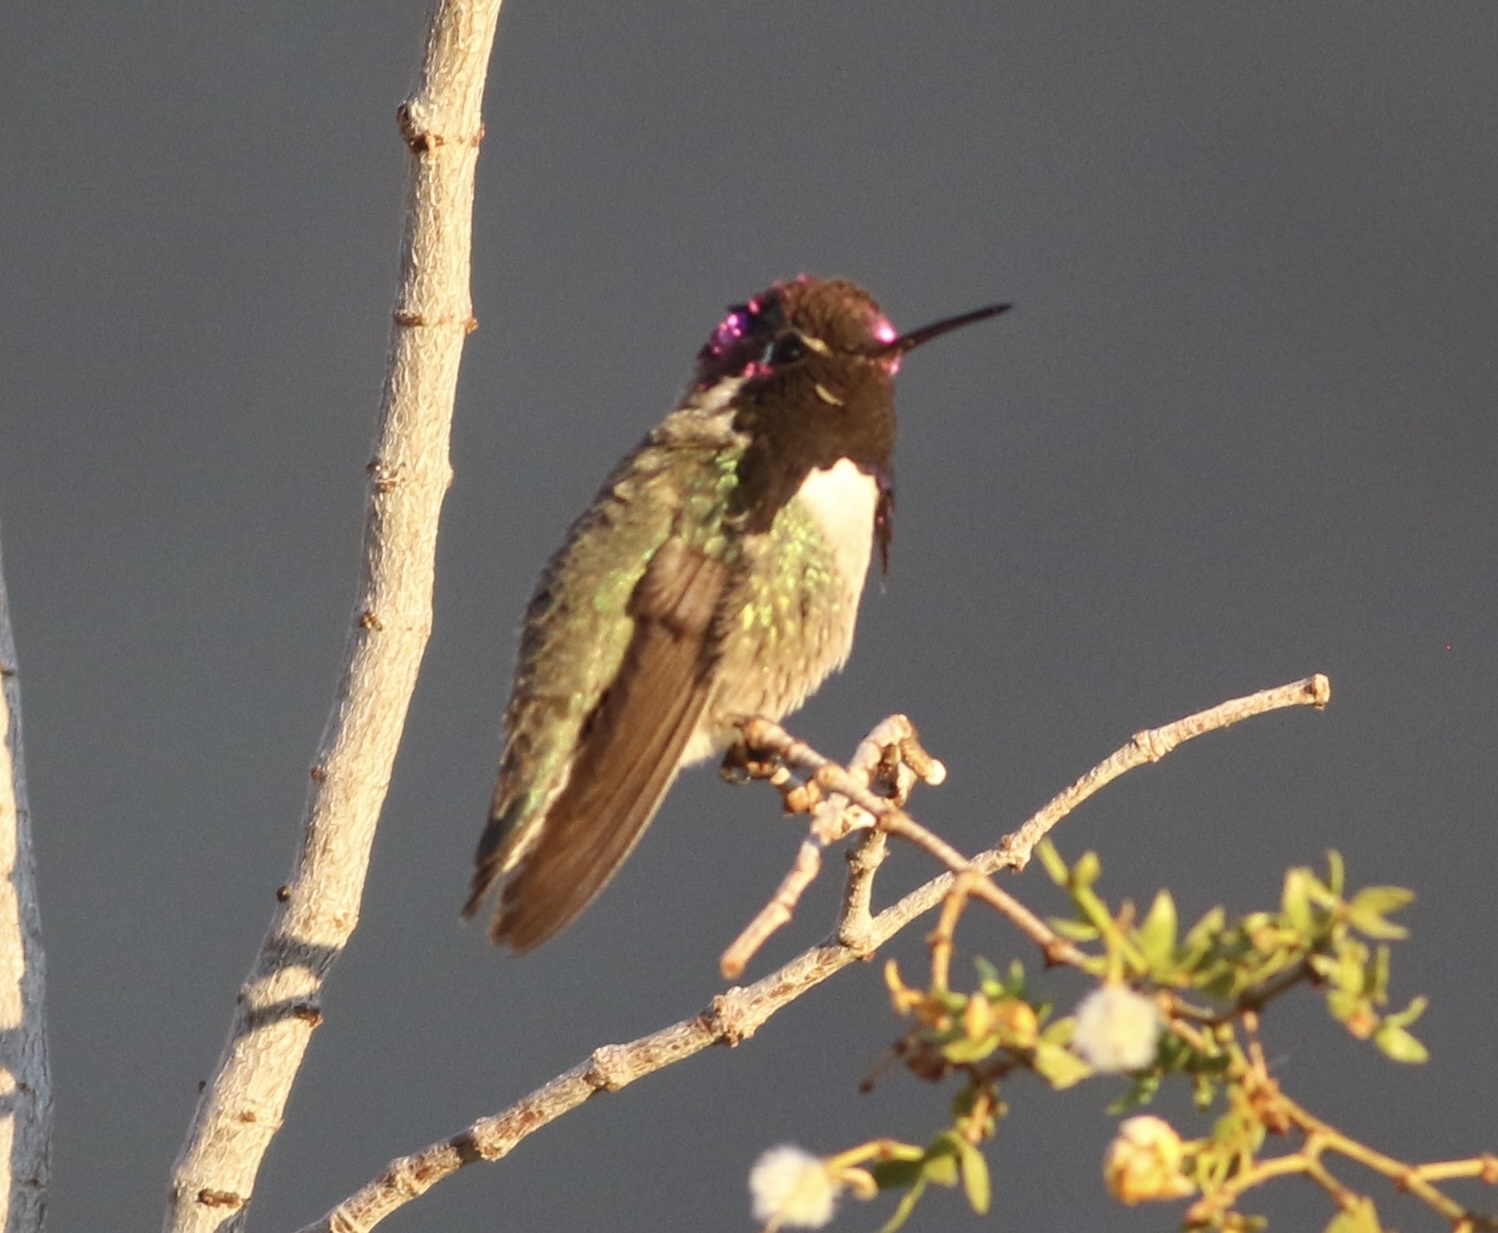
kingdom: Animalia
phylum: Chordata
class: Aves
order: Apodiformes
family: Trochilidae
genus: Calypte
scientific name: Calypte costae
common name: Costa's hummingbird
